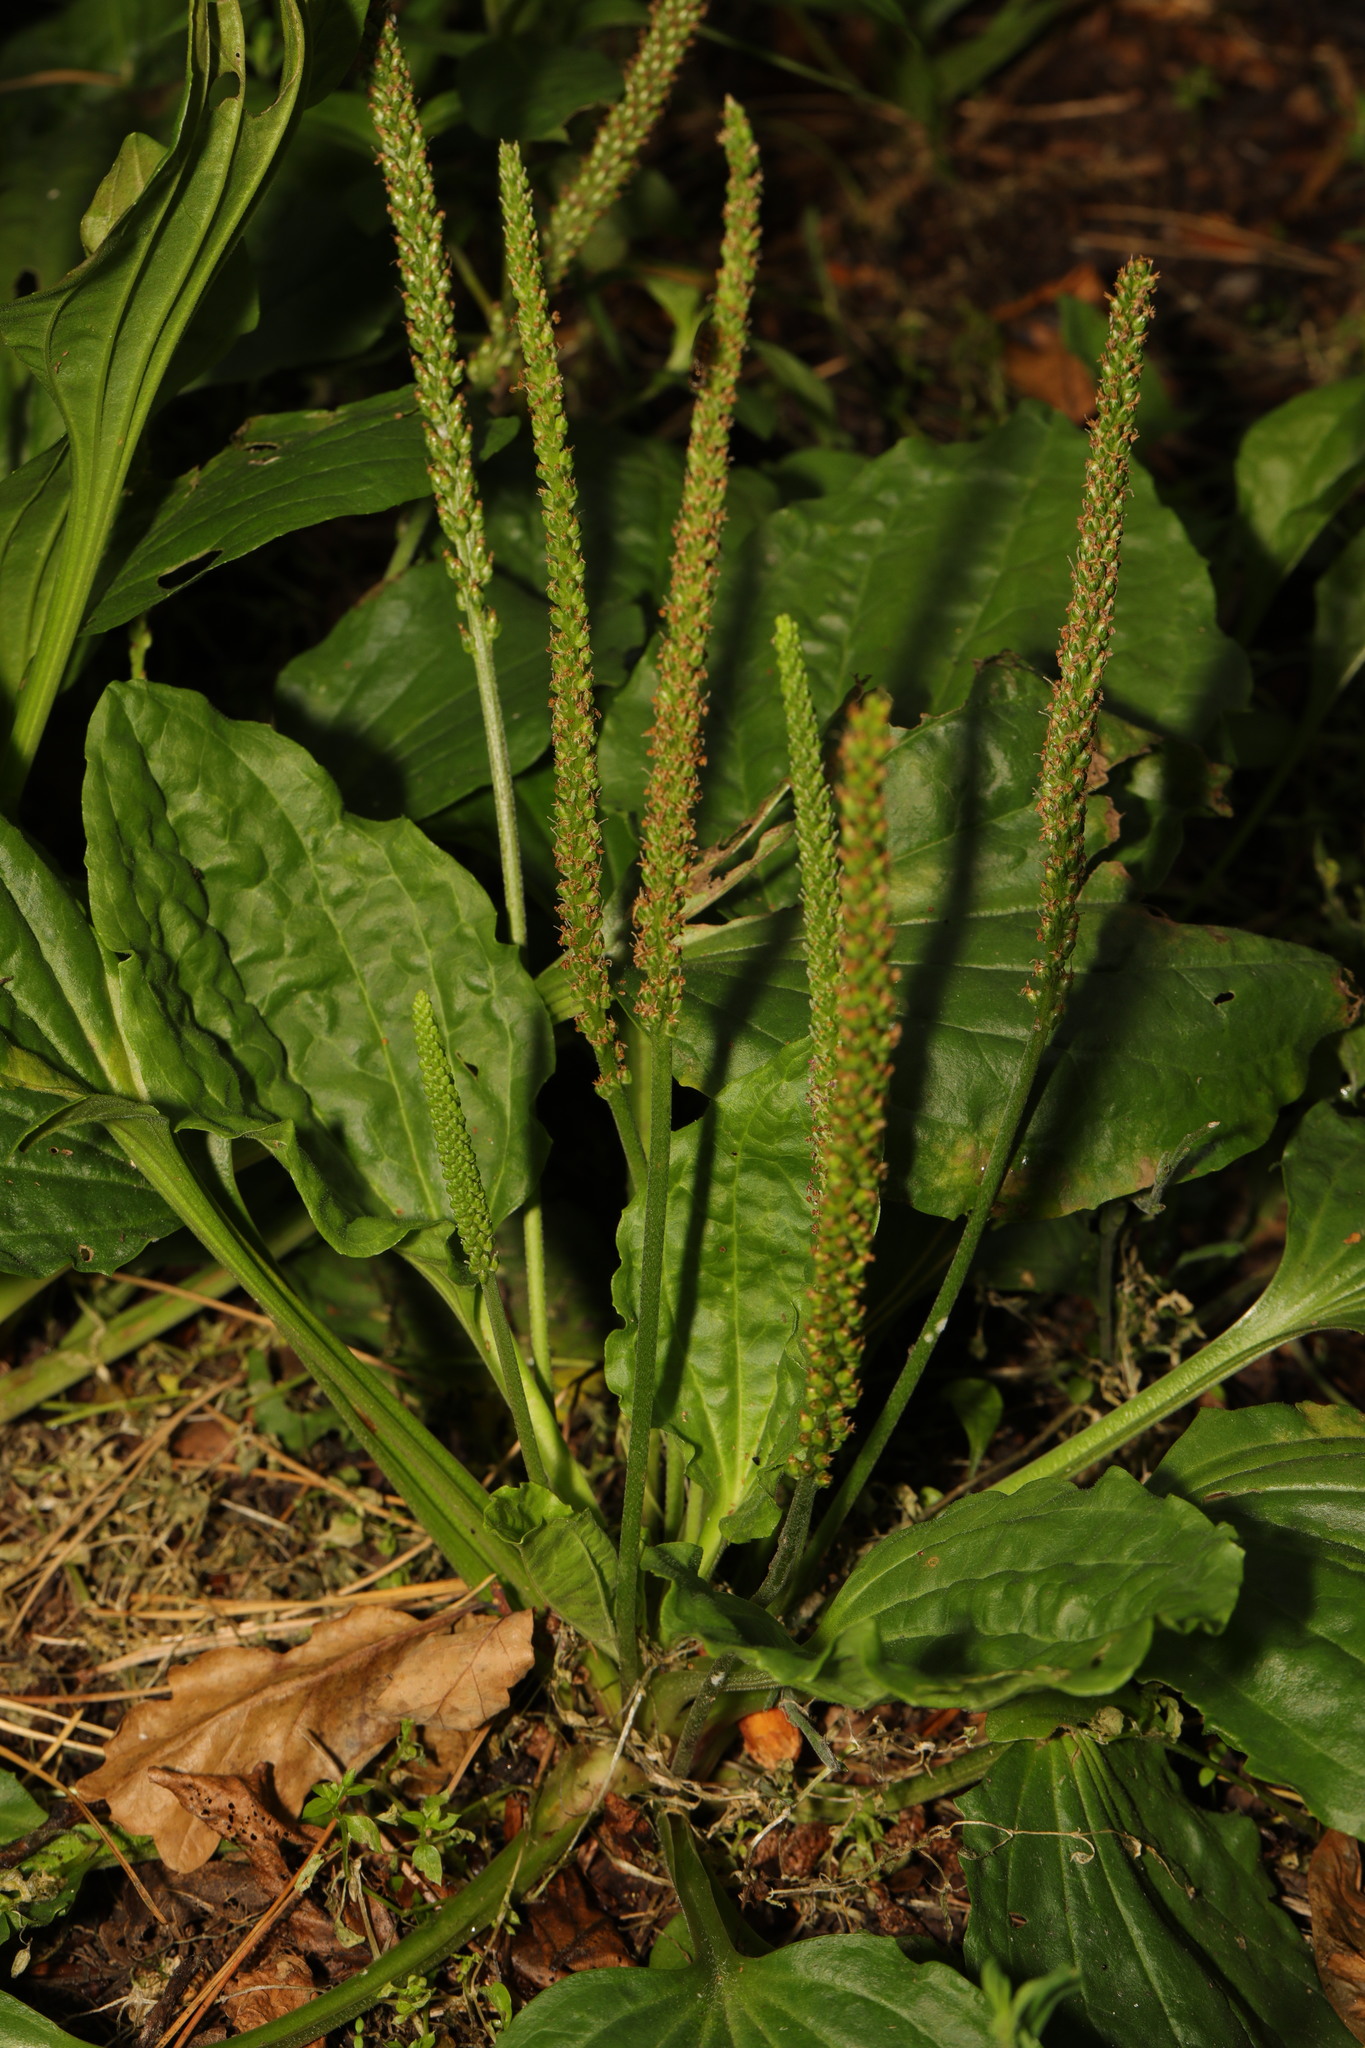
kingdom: Plantae
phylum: Tracheophyta
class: Magnoliopsida
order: Lamiales
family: Plantaginaceae
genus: Plantago
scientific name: Plantago major
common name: Common plantain
